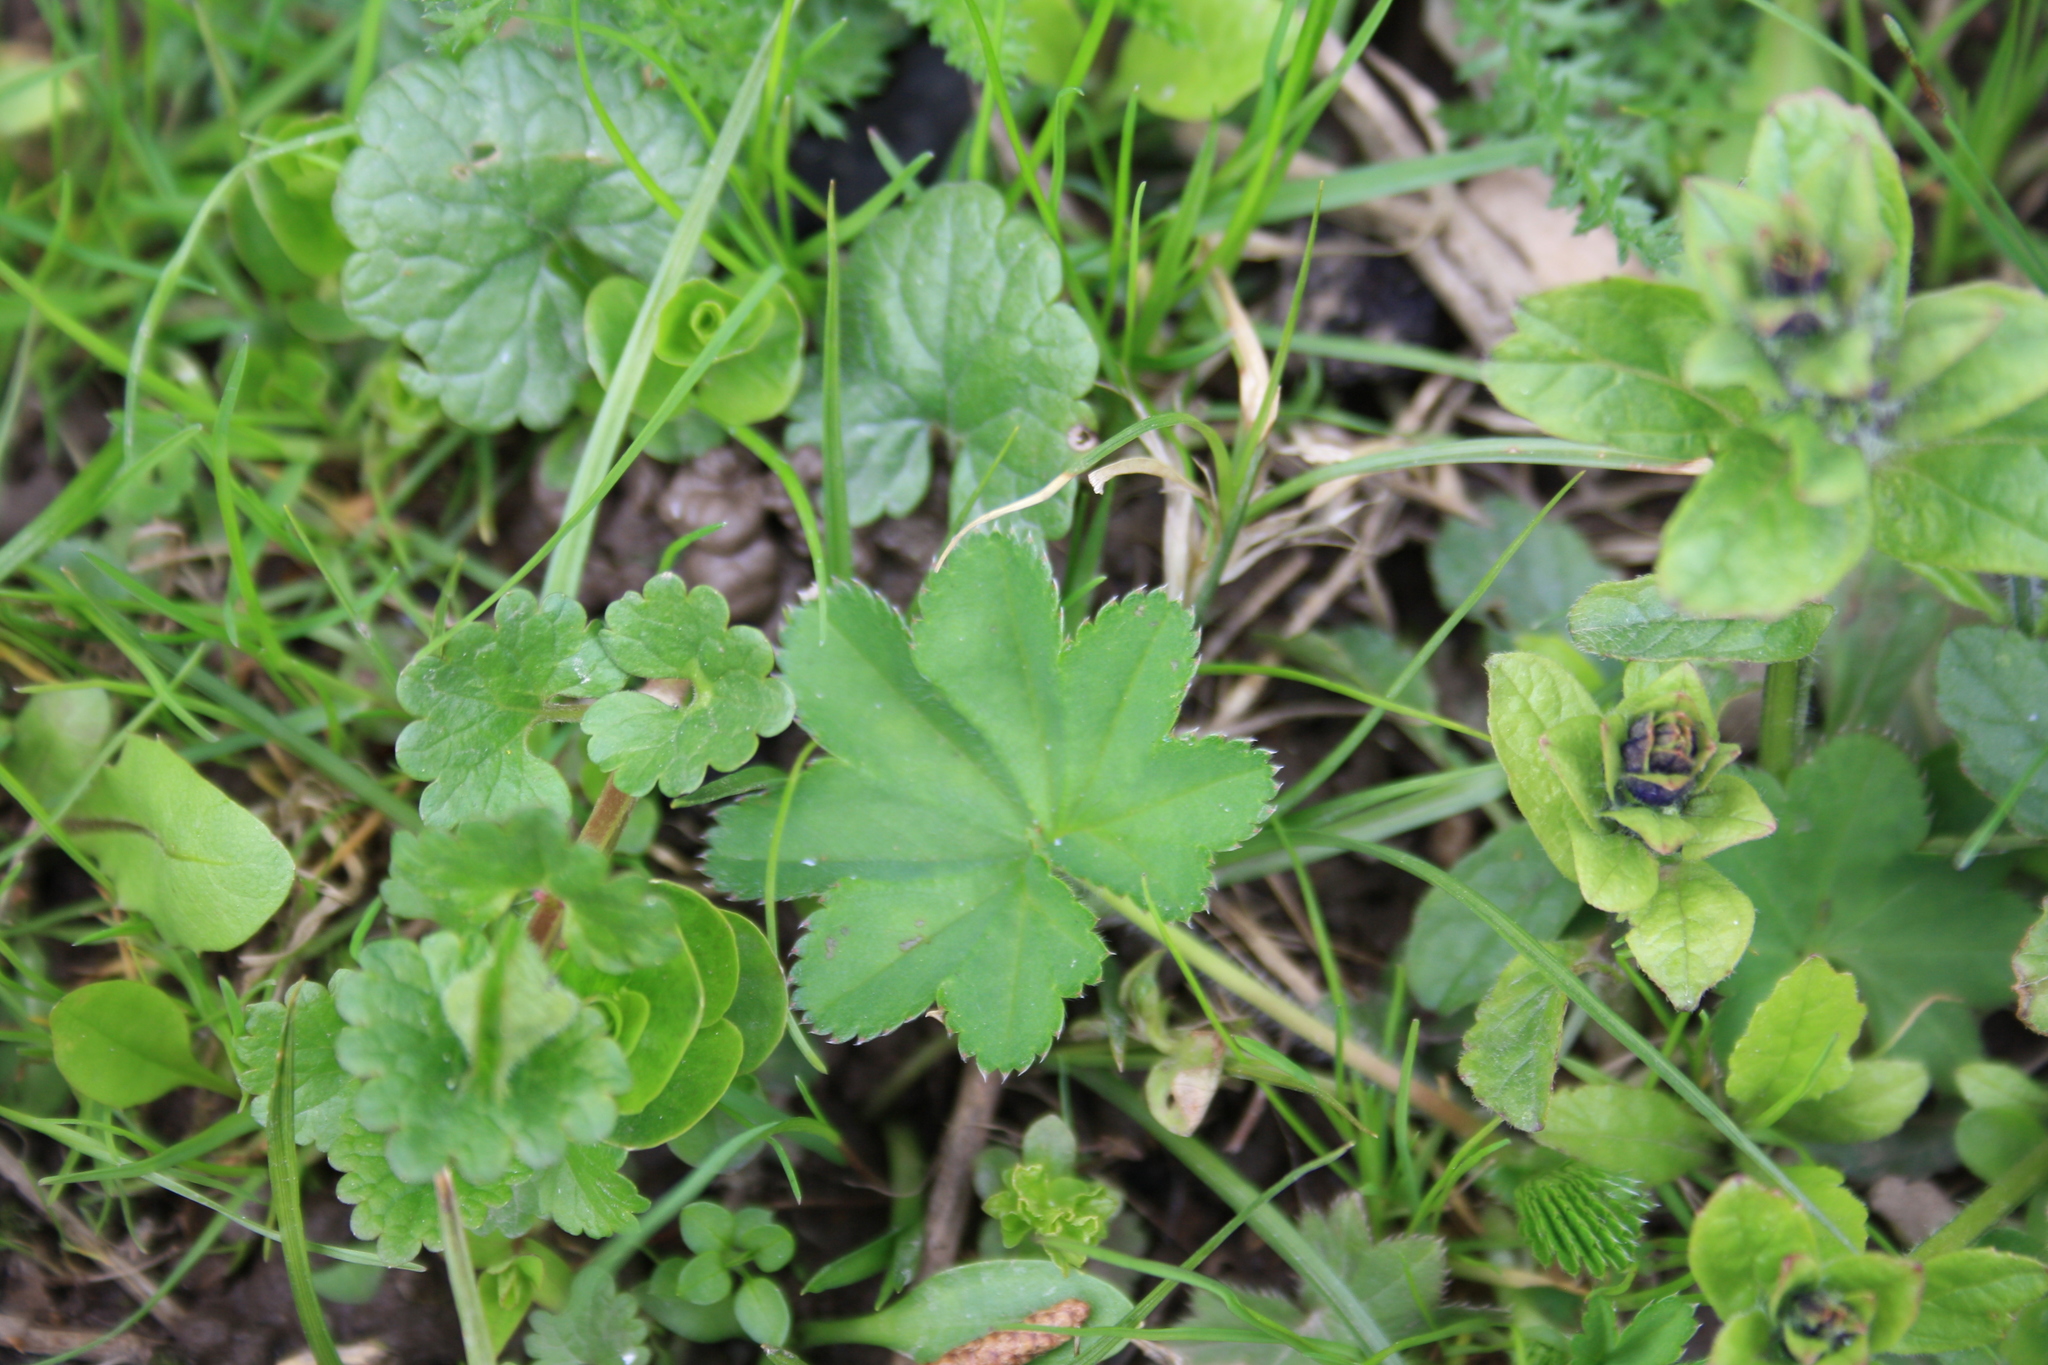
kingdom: Plantae
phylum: Tracheophyta
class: Magnoliopsida
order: Rosales
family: Rosaceae
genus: Alchemilla
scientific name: Alchemilla
